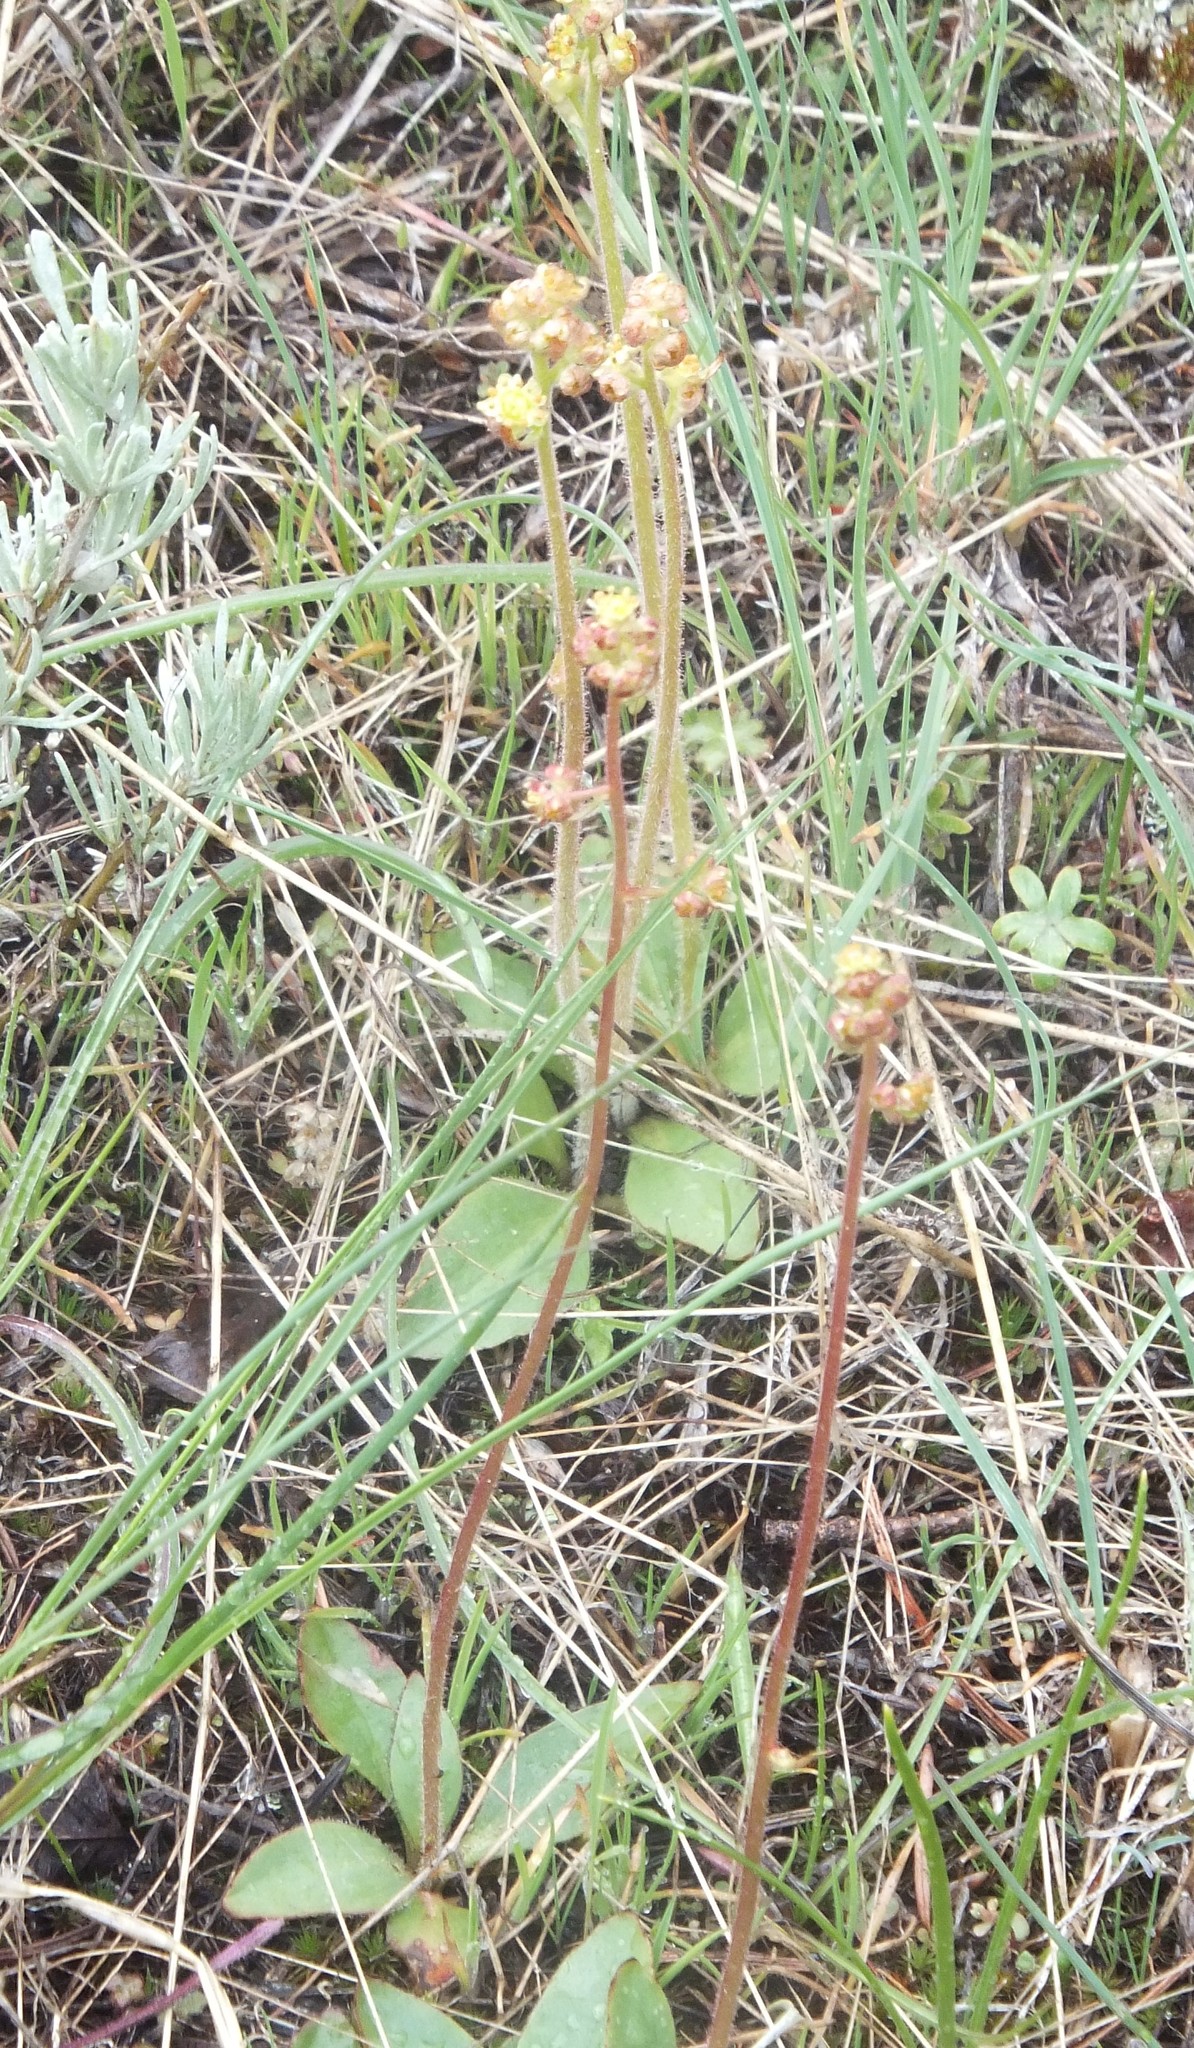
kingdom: Plantae
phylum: Tracheophyta
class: Magnoliopsida
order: Saxifragales
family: Saxifragaceae
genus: Micranthes
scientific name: Micranthes nidifica
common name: Peak saxifrage
